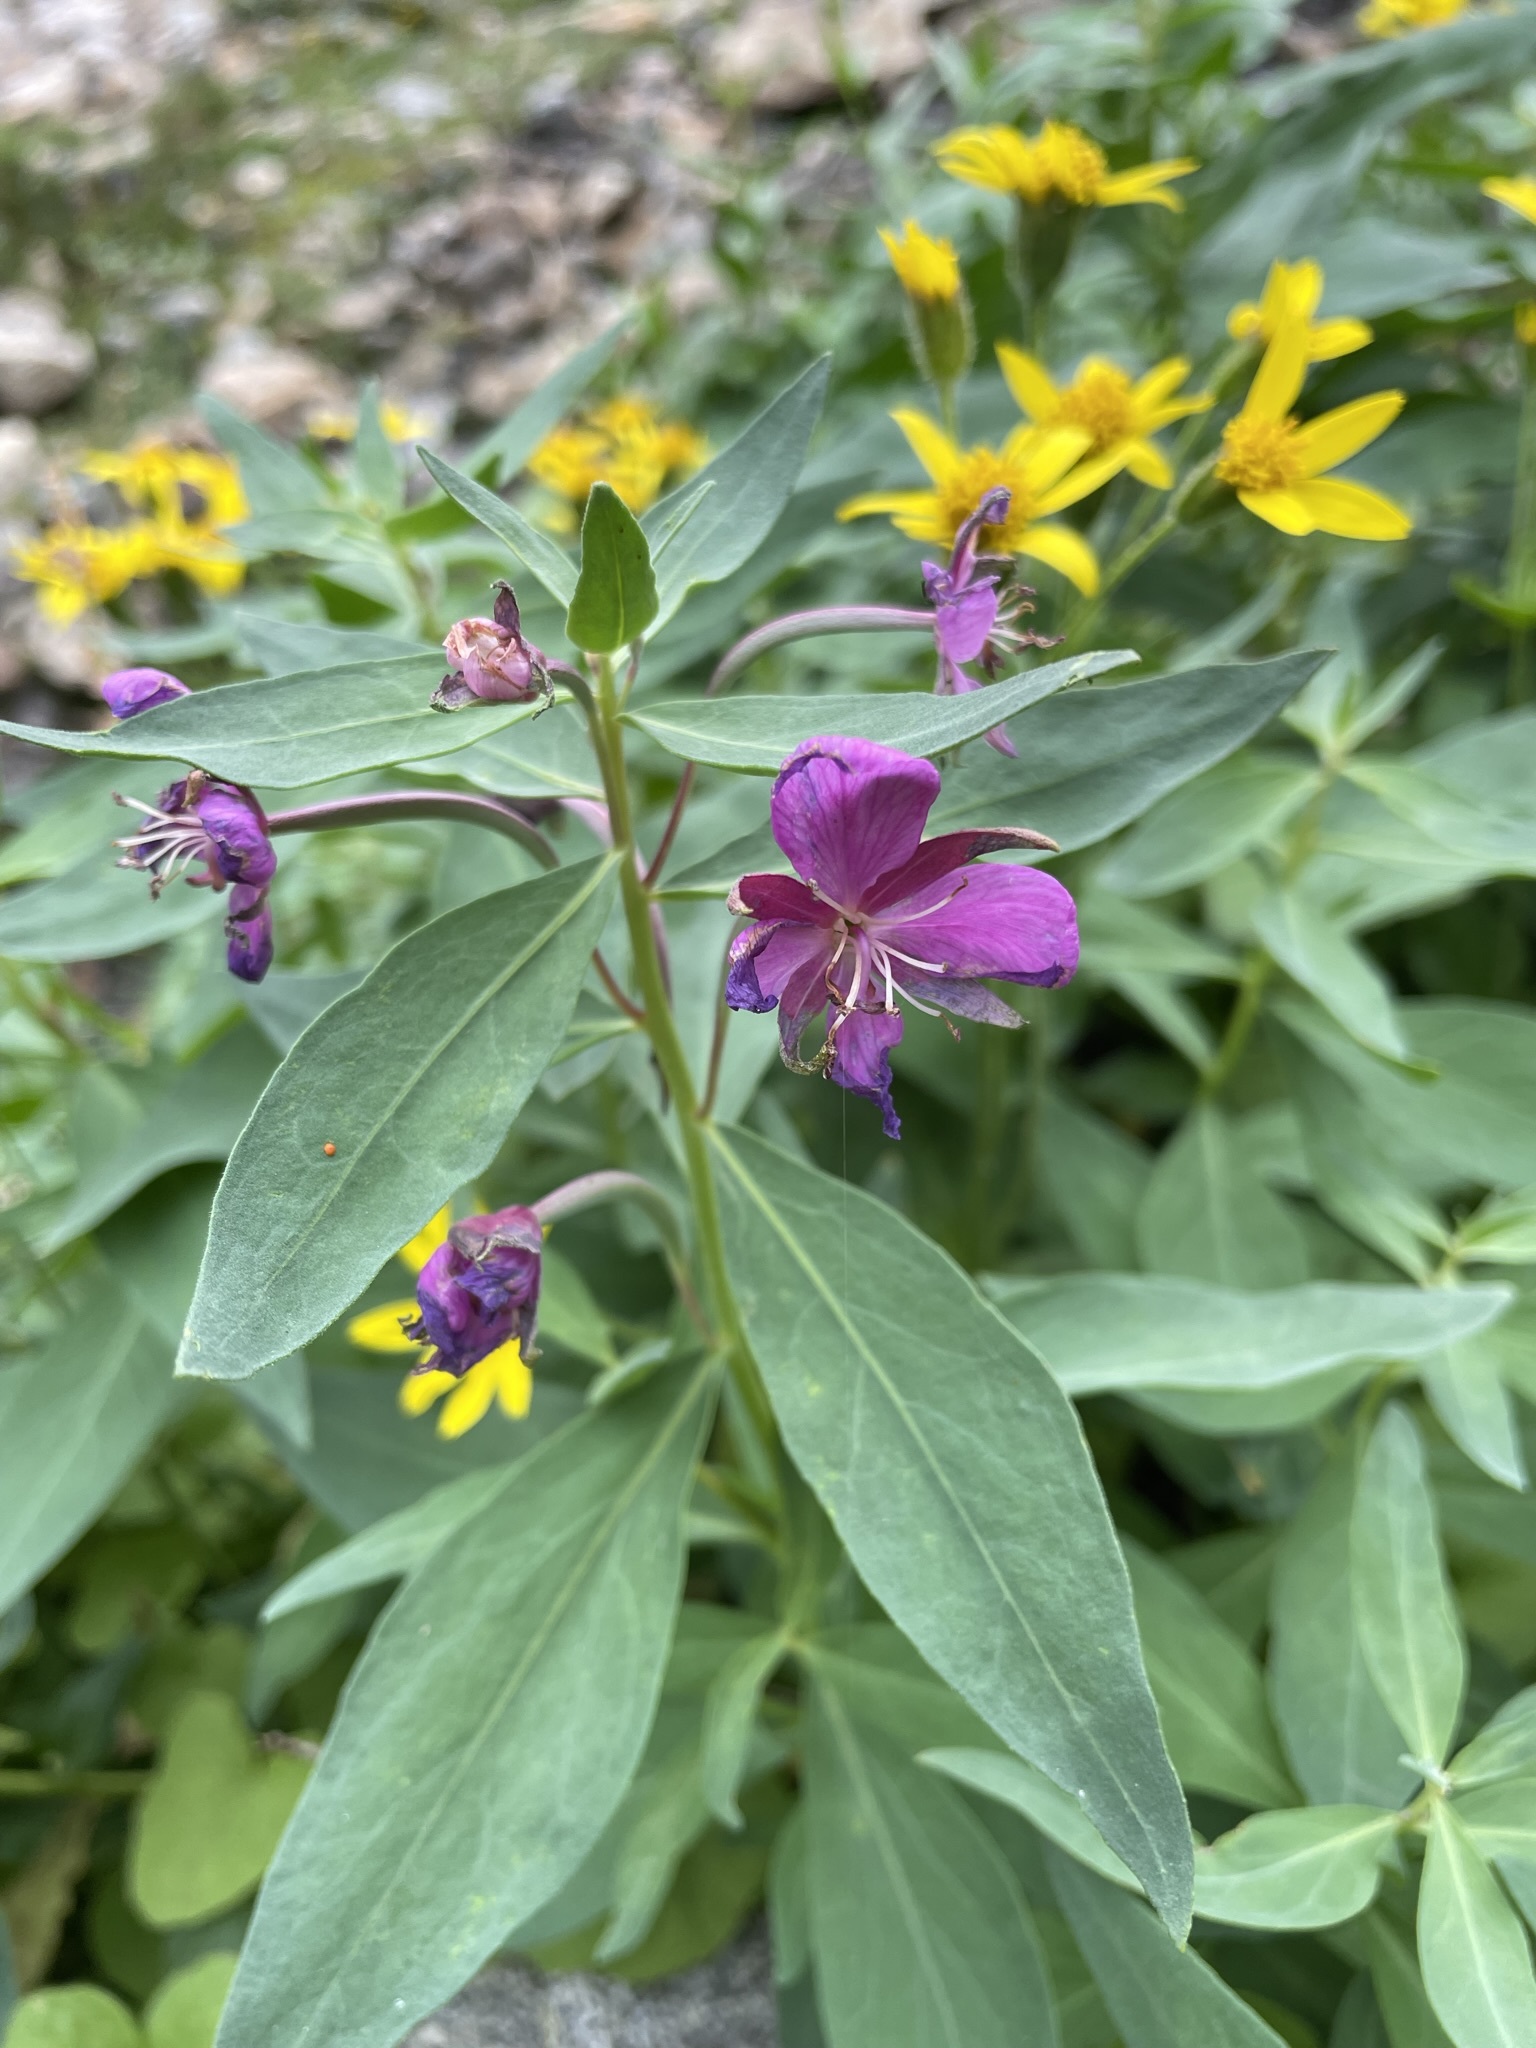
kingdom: Plantae
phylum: Tracheophyta
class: Magnoliopsida
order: Myrtales
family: Onagraceae
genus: Chamaenerion
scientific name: Chamaenerion latifolium
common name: Dwarf fireweed
